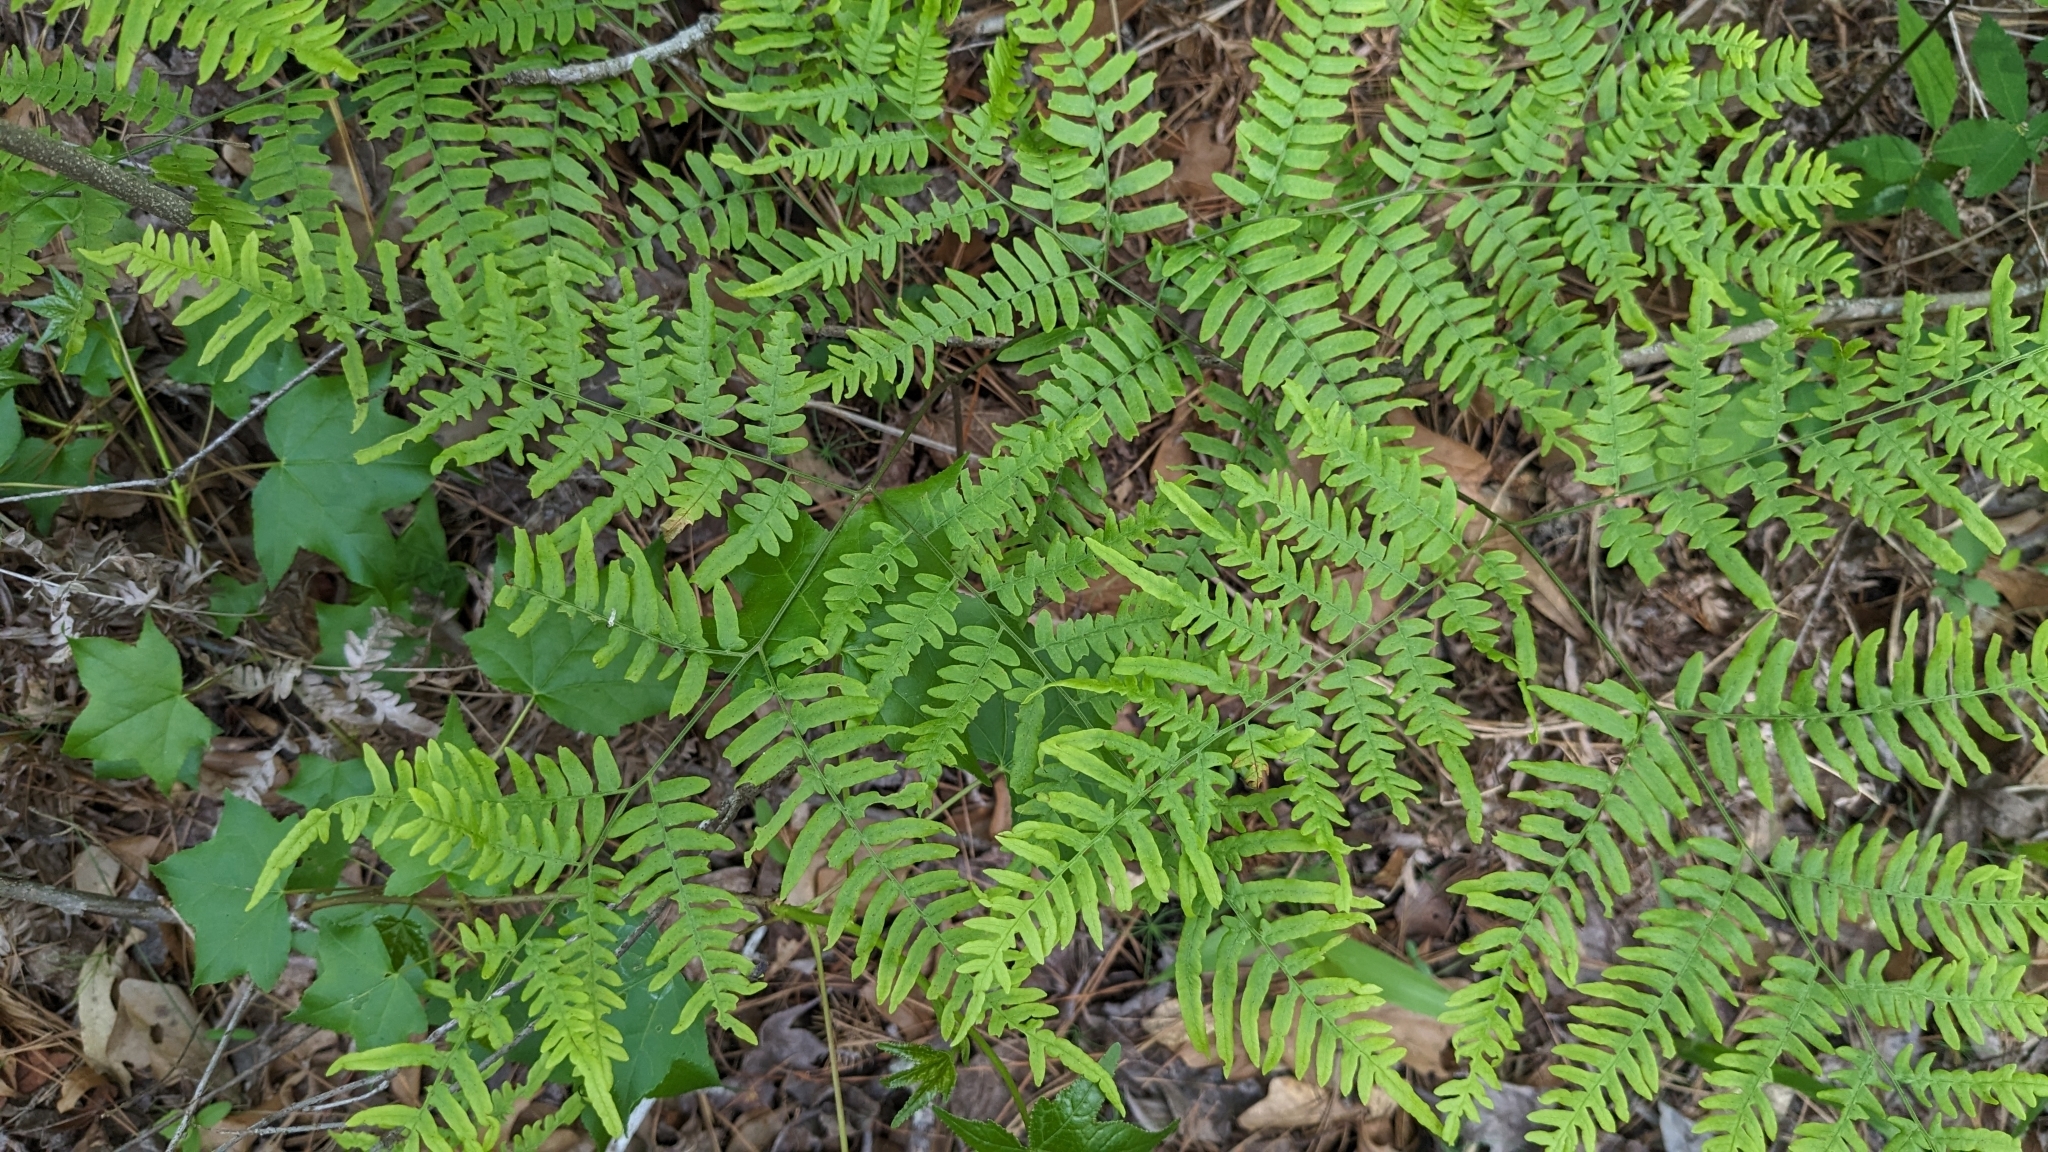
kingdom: Plantae
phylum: Tracheophyta
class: Polypodiopsida
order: Polypodiales
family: Dennstaedtiaceae
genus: Pteridium
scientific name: Pteridium
